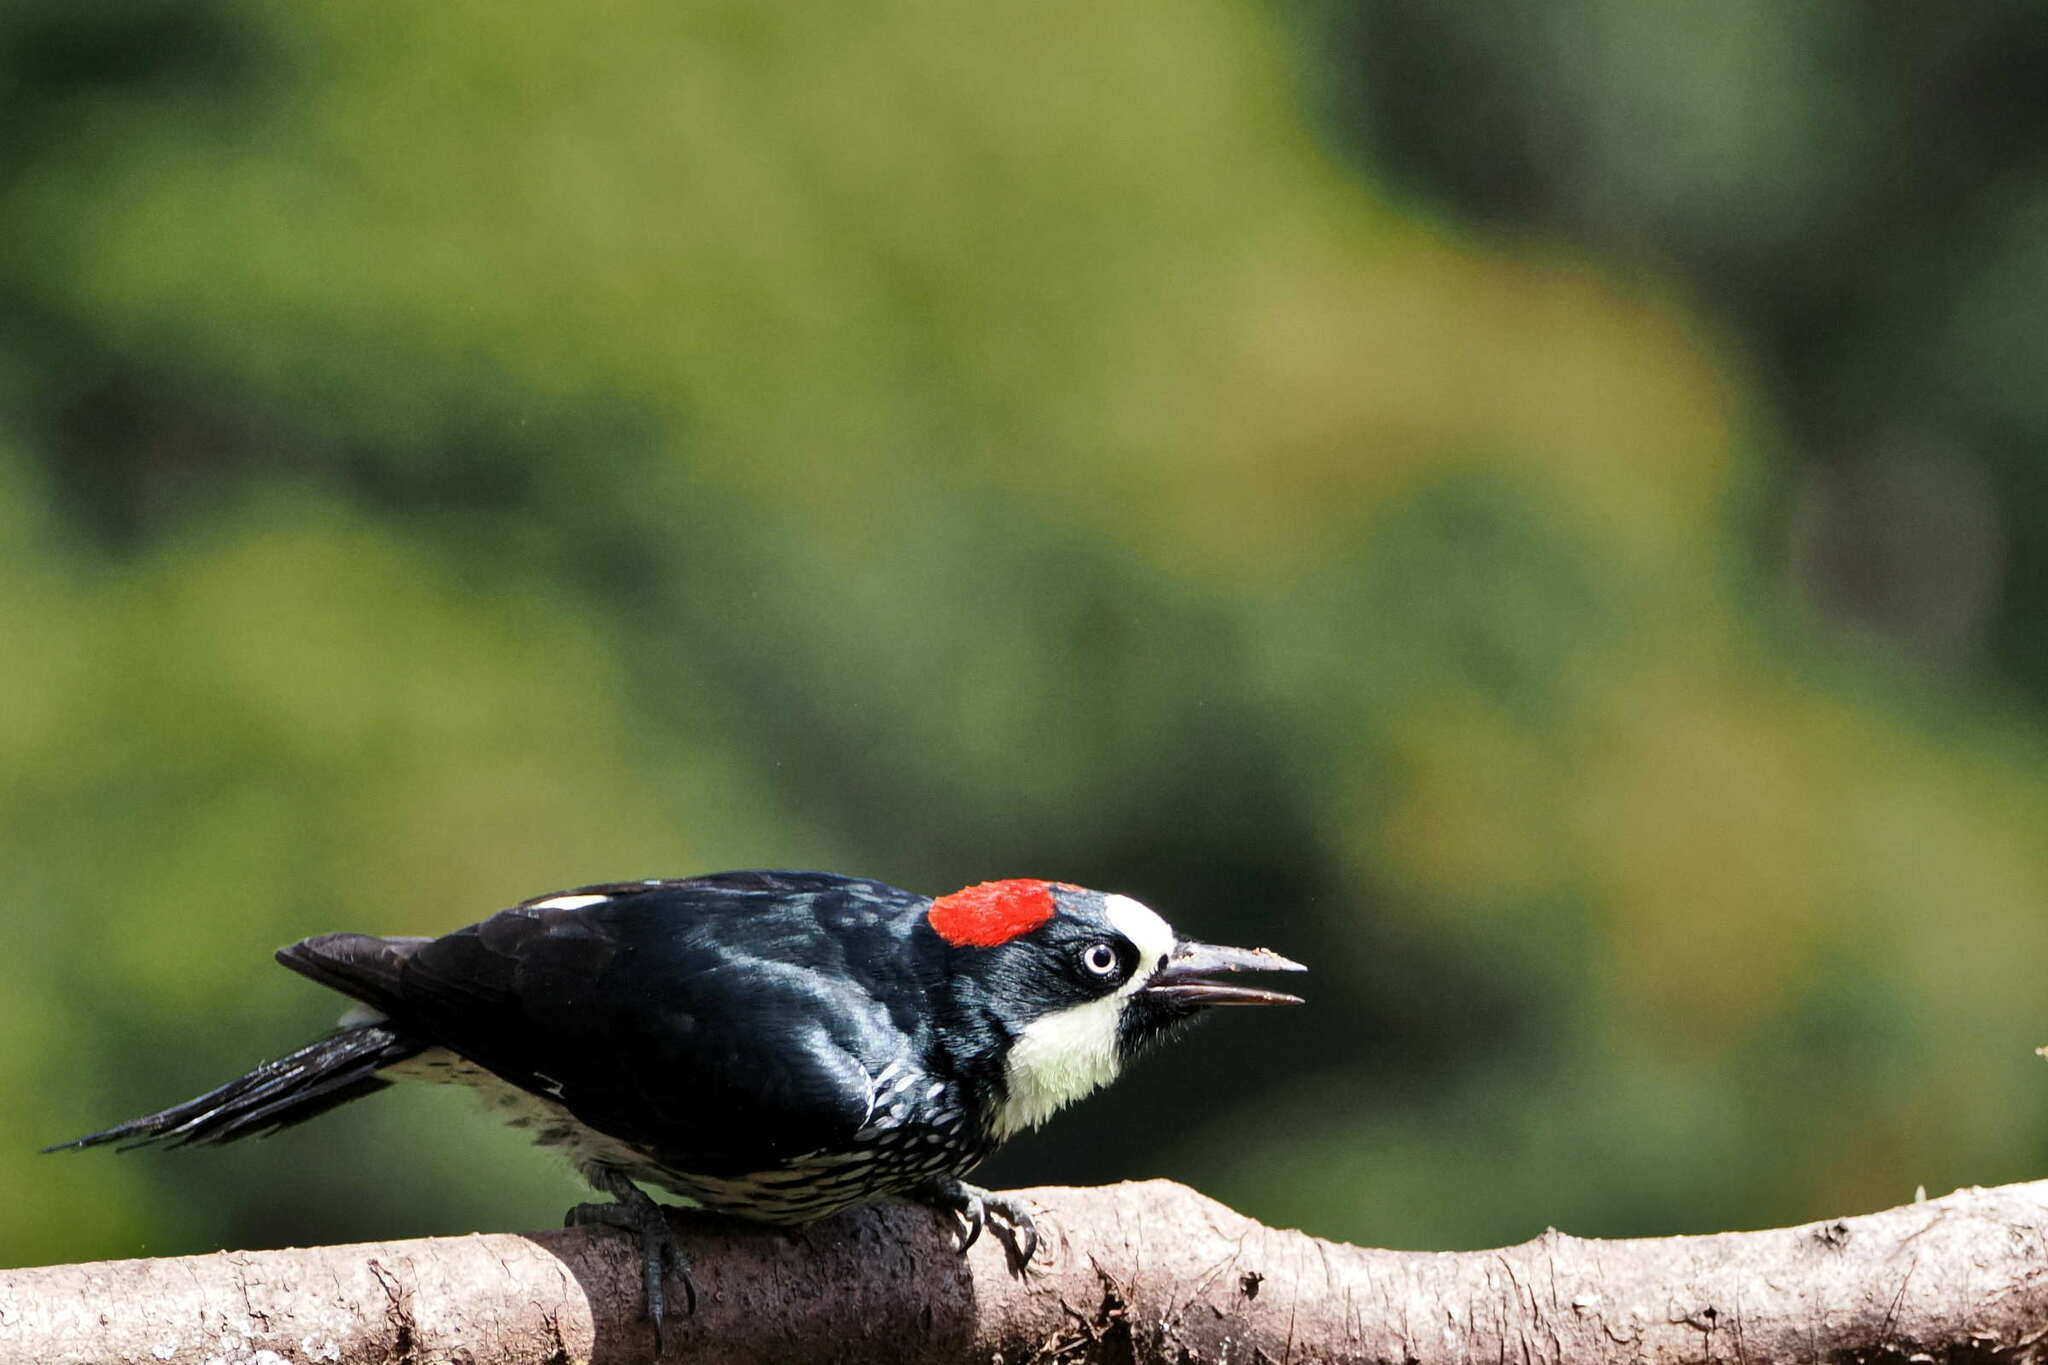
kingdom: Animalia
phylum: Chordata
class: Aves
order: Piciformes
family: Picidae
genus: Melanerpes
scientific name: Melanerpes formicivorus
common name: Acorn woodpecker
